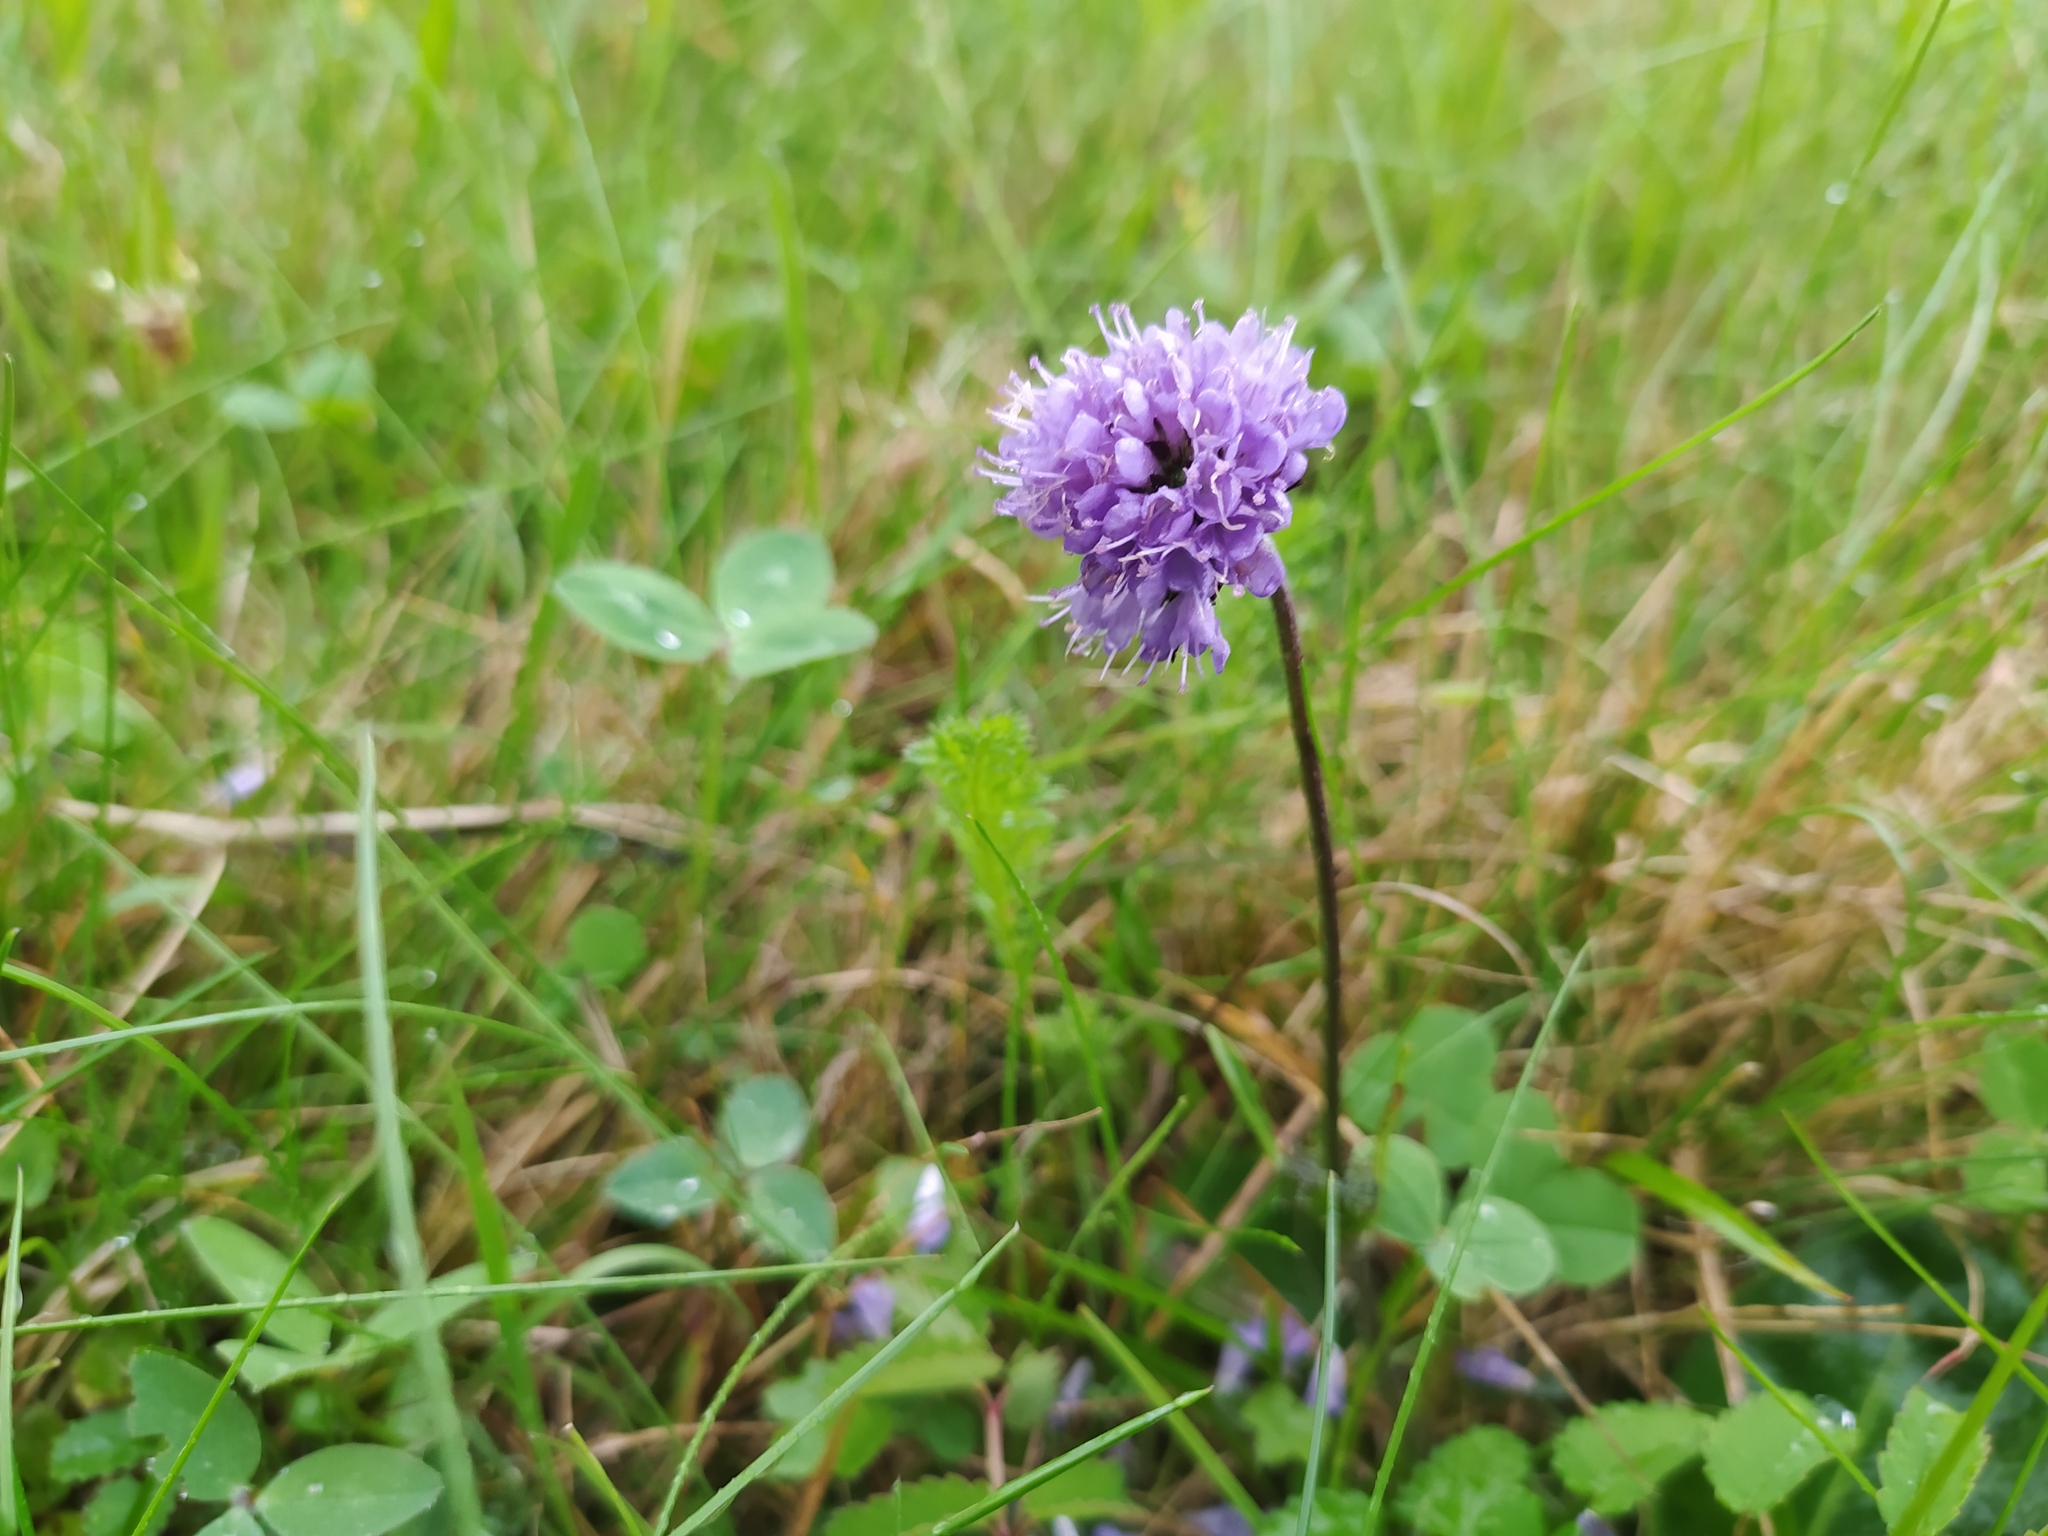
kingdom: Plantae
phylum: Tracheophyta
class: Magnoliopsida
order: Dipsacales
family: Caprifoliaceae
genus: Succisa
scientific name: Succisa pratensis
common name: Devil's-bit
